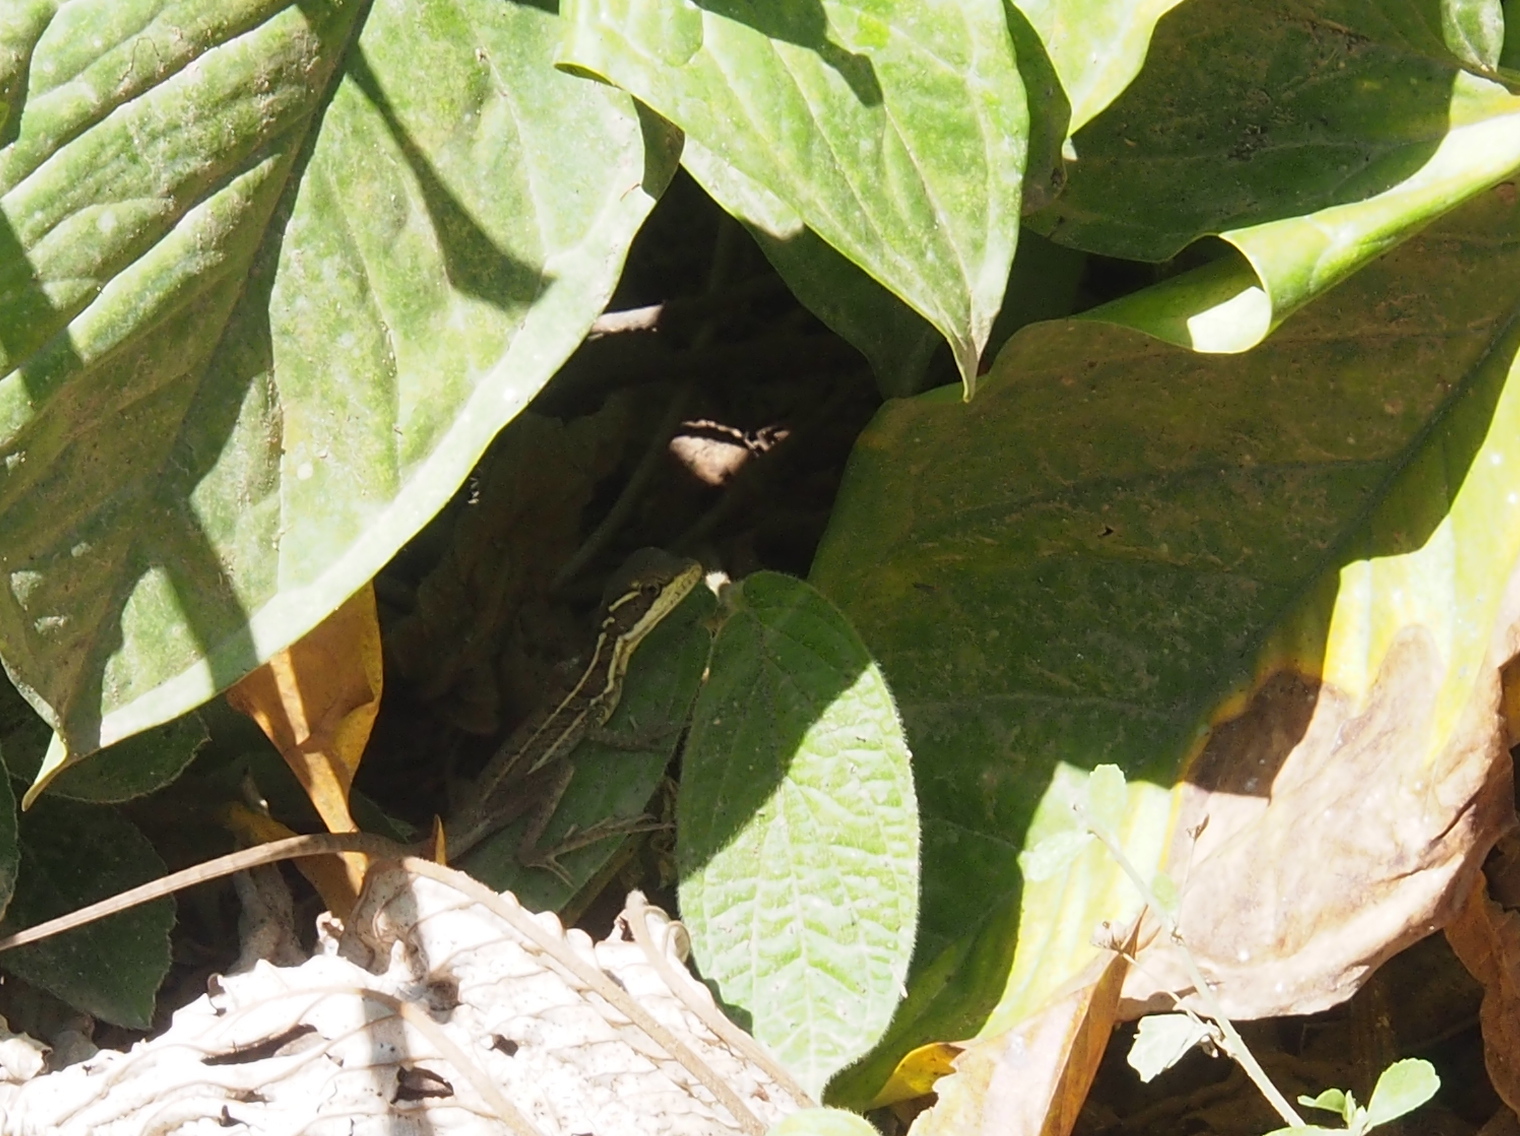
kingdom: Animalia
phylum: Chordata
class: Squamata
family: Corytophanidae
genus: Basiliscus
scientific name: Basiliscus basiliscus
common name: Common basilisk
